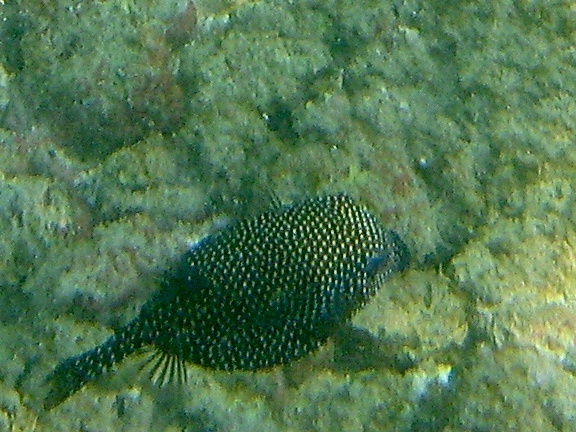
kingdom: Animalia
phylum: Chordata
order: Tetraodontiformes
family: Ostraciidae
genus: Ostracion
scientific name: Ostracion meleagris
